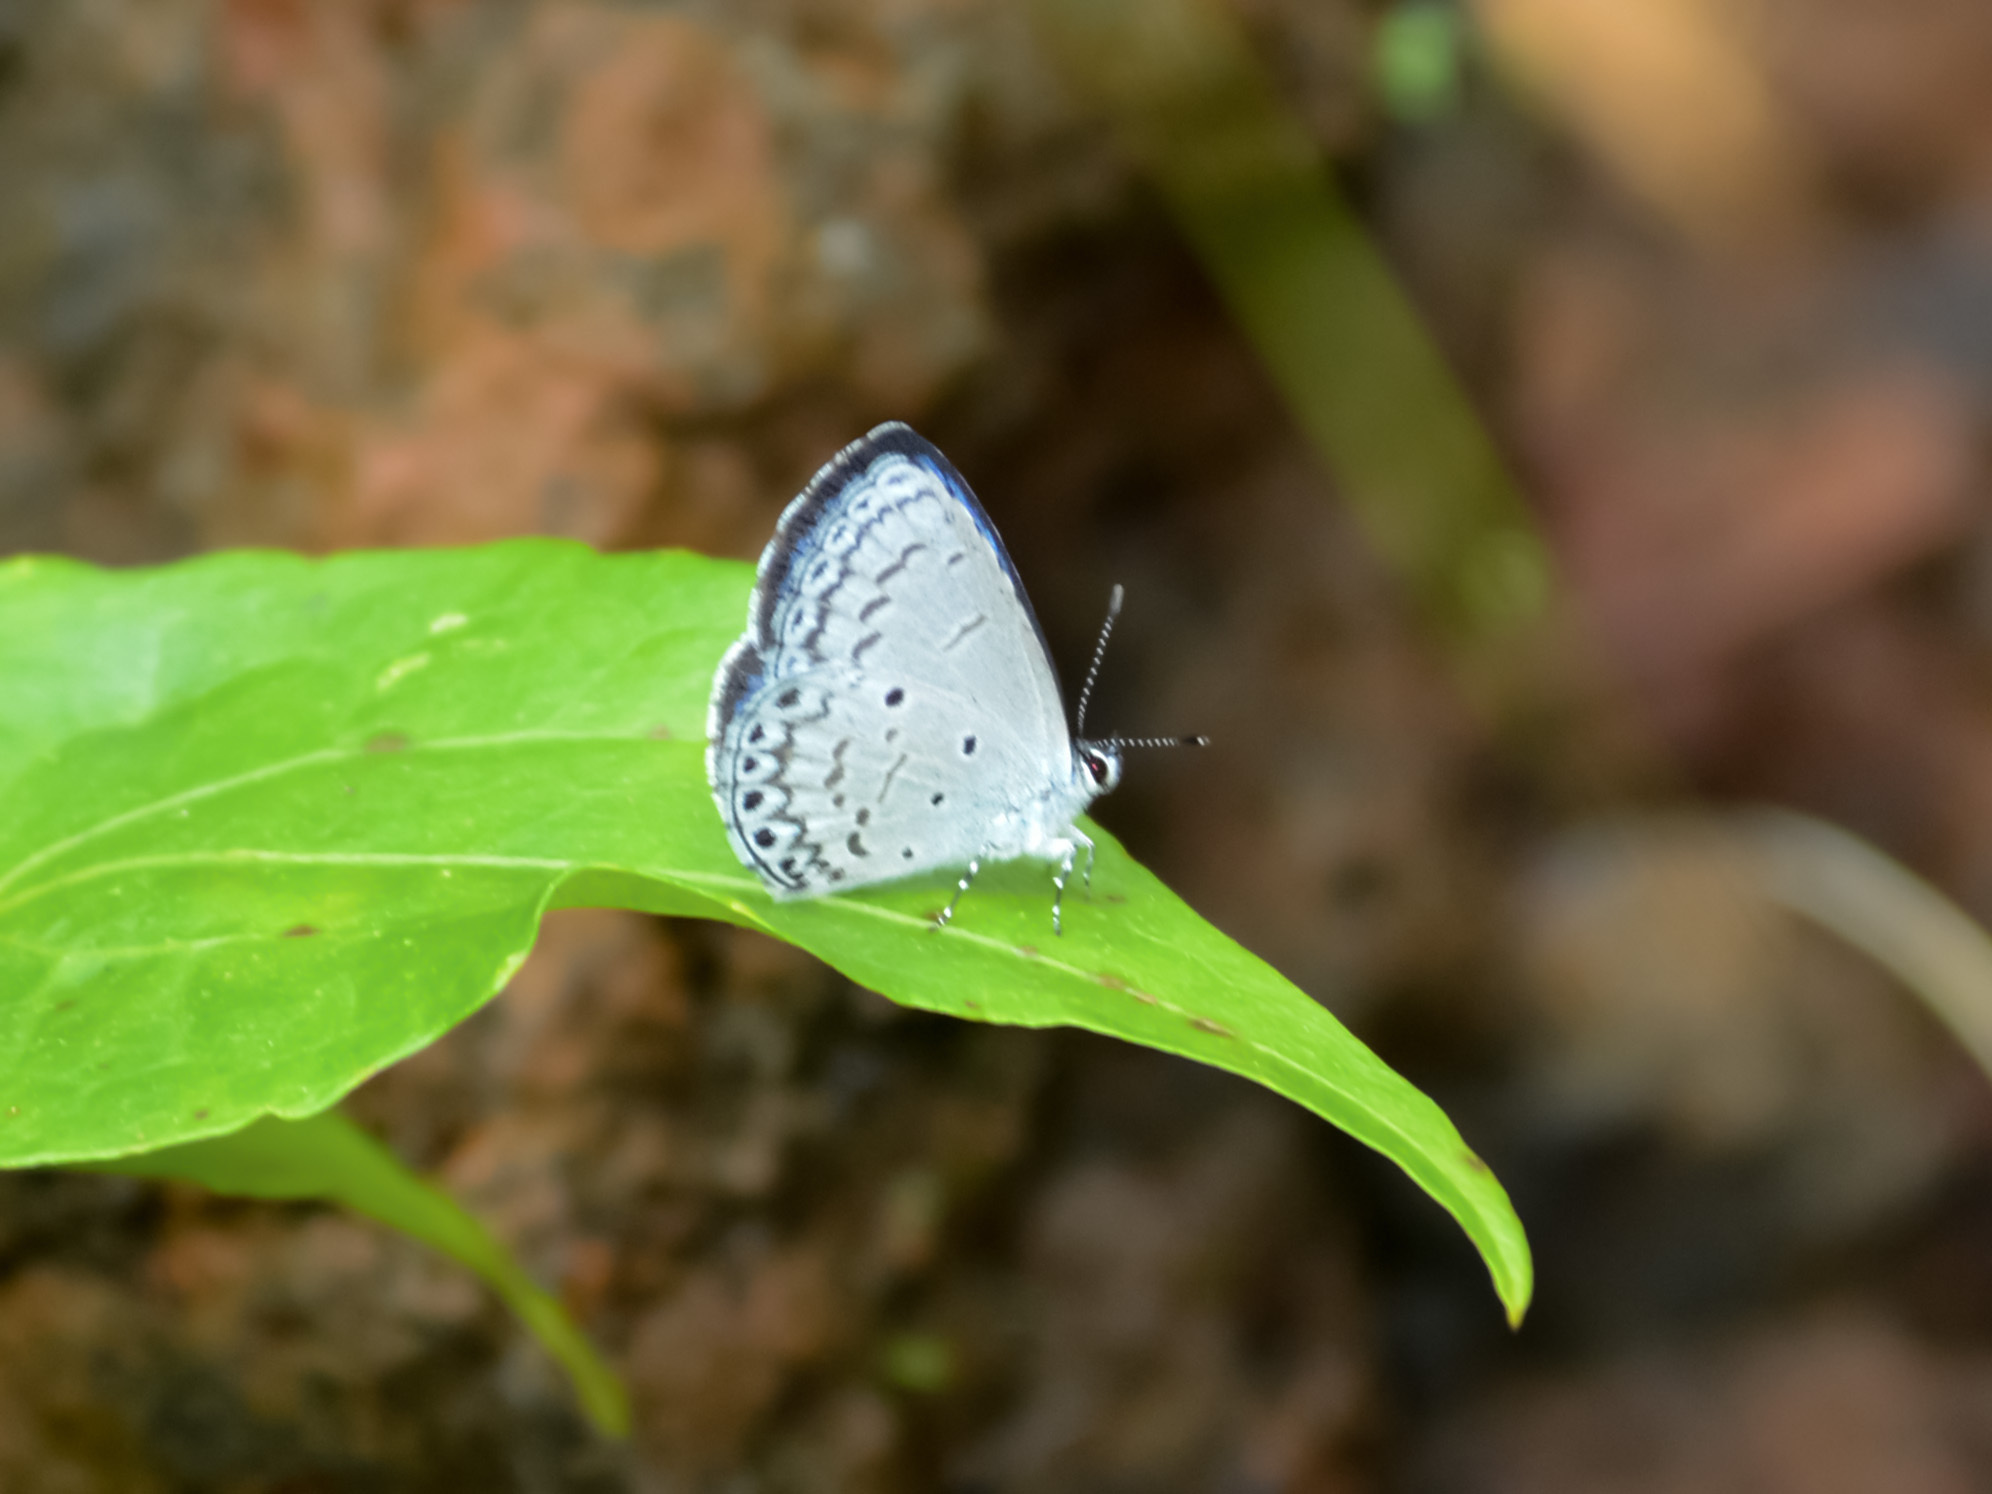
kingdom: Animalia
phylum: Arthropoda
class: Insecta
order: Lepidoptera
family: Lycaenidae
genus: Celastrina
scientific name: Celastrina
